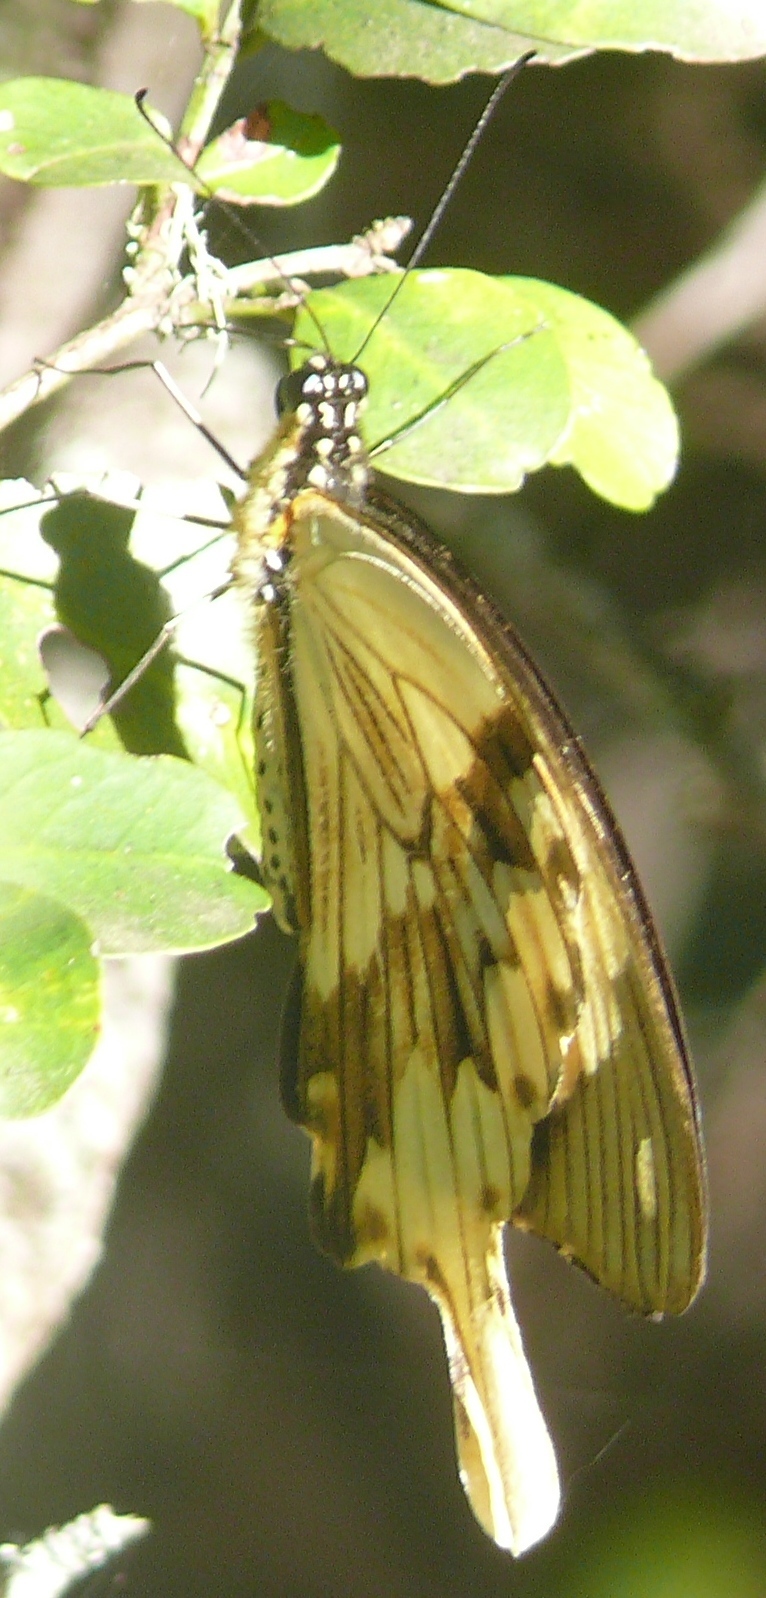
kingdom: Animalia
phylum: Arthropoda
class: Insecta
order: Lepidoptera
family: Papilionidae
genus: Papilio
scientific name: Papilio dardanus
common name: Flying handkerchief
